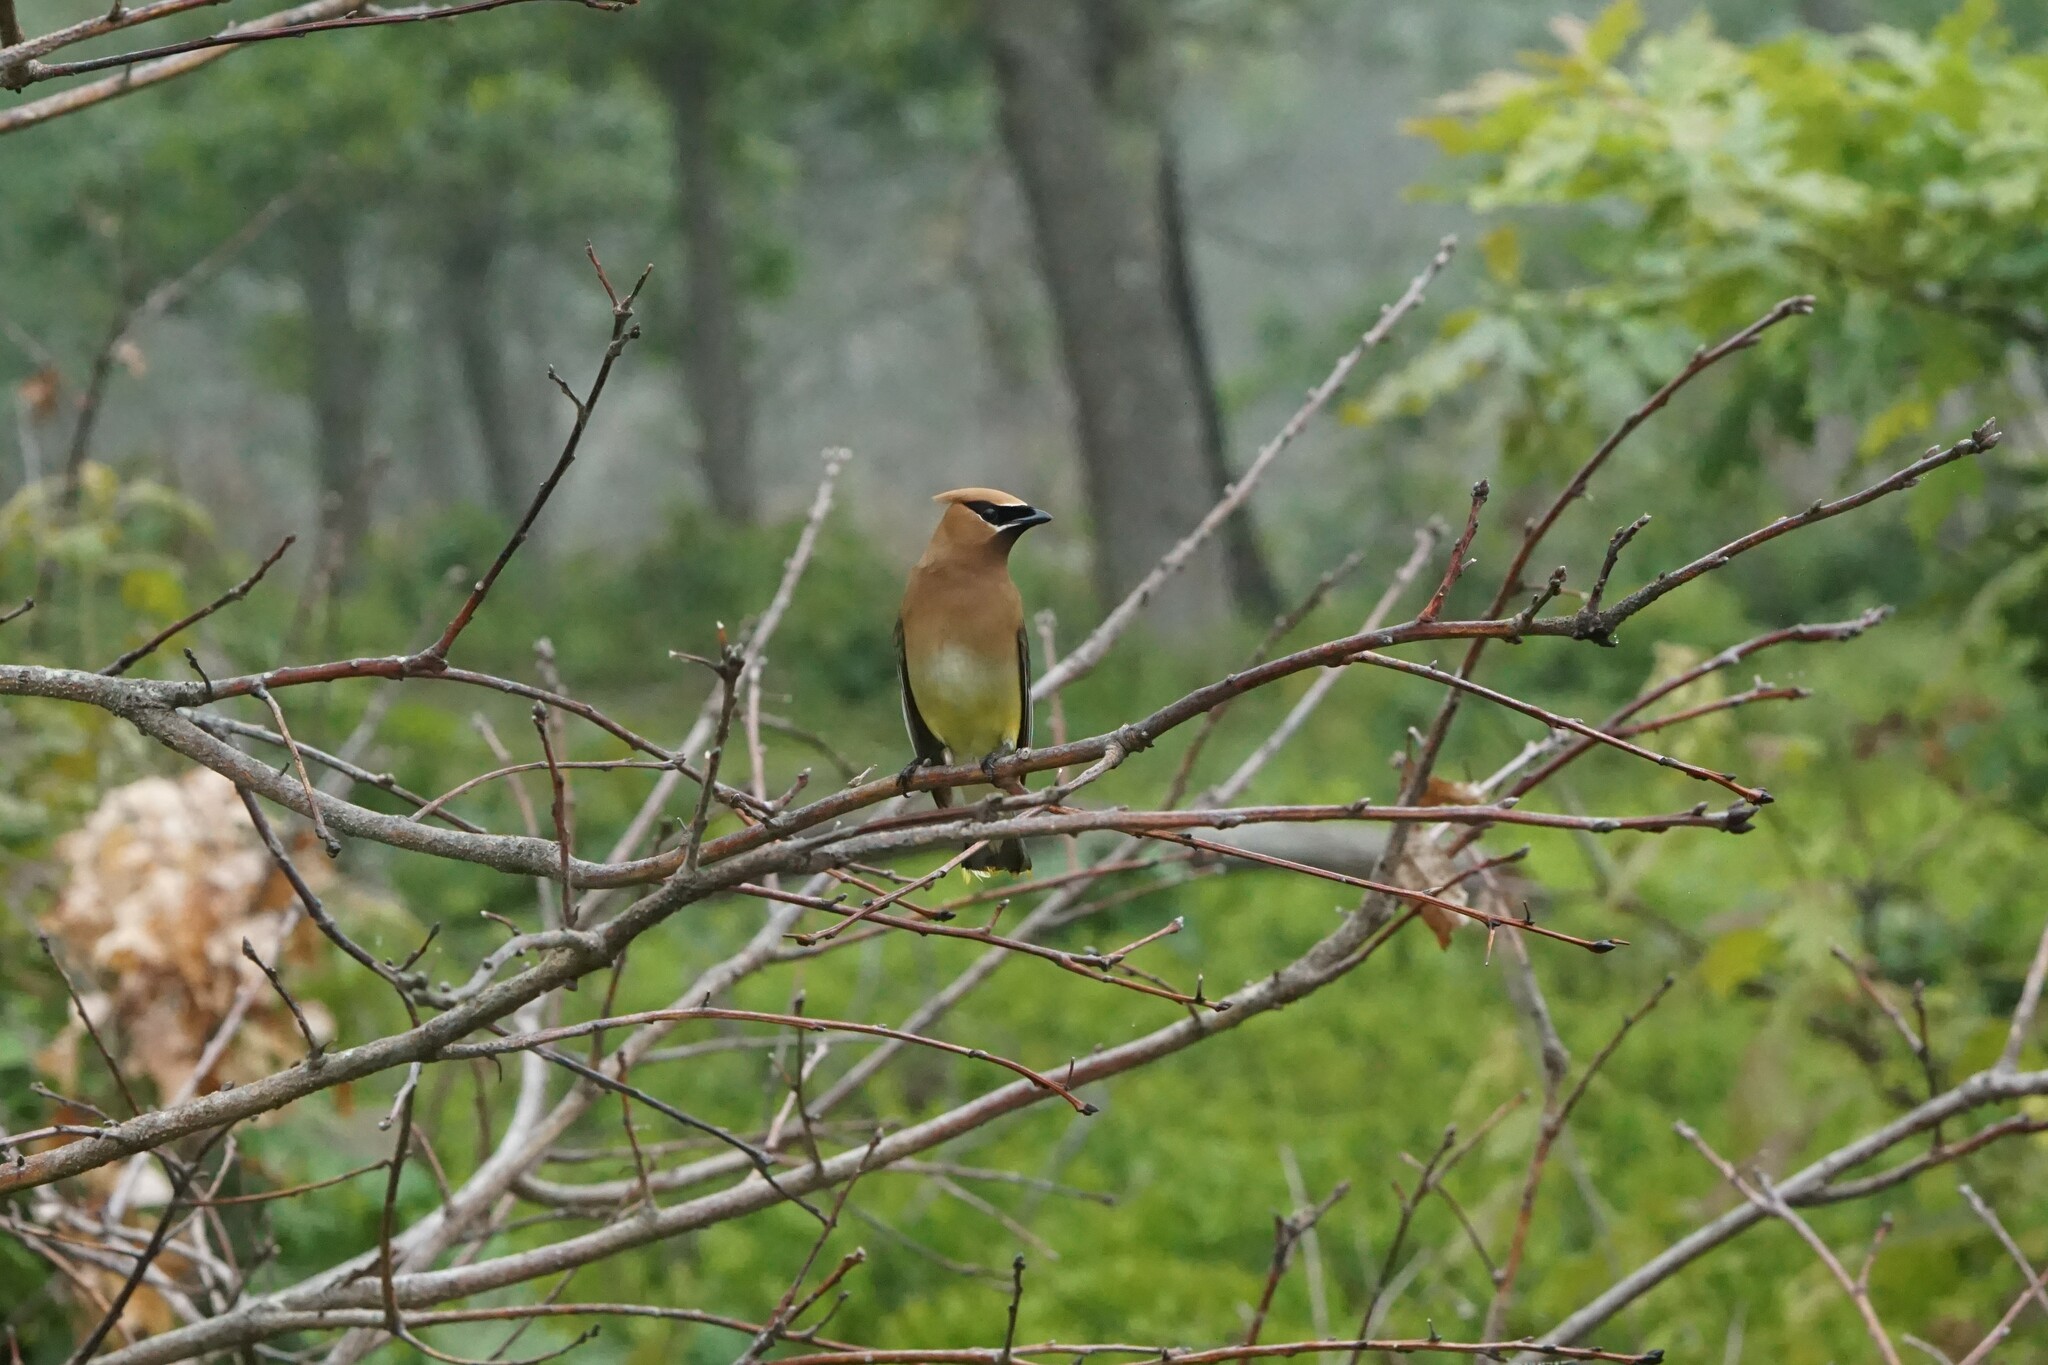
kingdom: Animalia
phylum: Chordata
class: Aves
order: Passeriformes
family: Bombycillidae
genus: Bombycilla
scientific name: Bombycilla cedrorum
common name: Cedar waxwing
